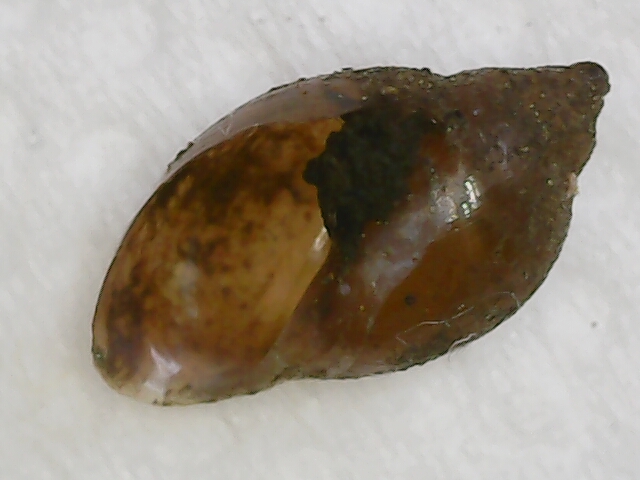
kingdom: Animalia
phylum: Mollusca
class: Gastropoda
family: Physidae
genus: Physella
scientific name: Physella acuta
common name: European physa
